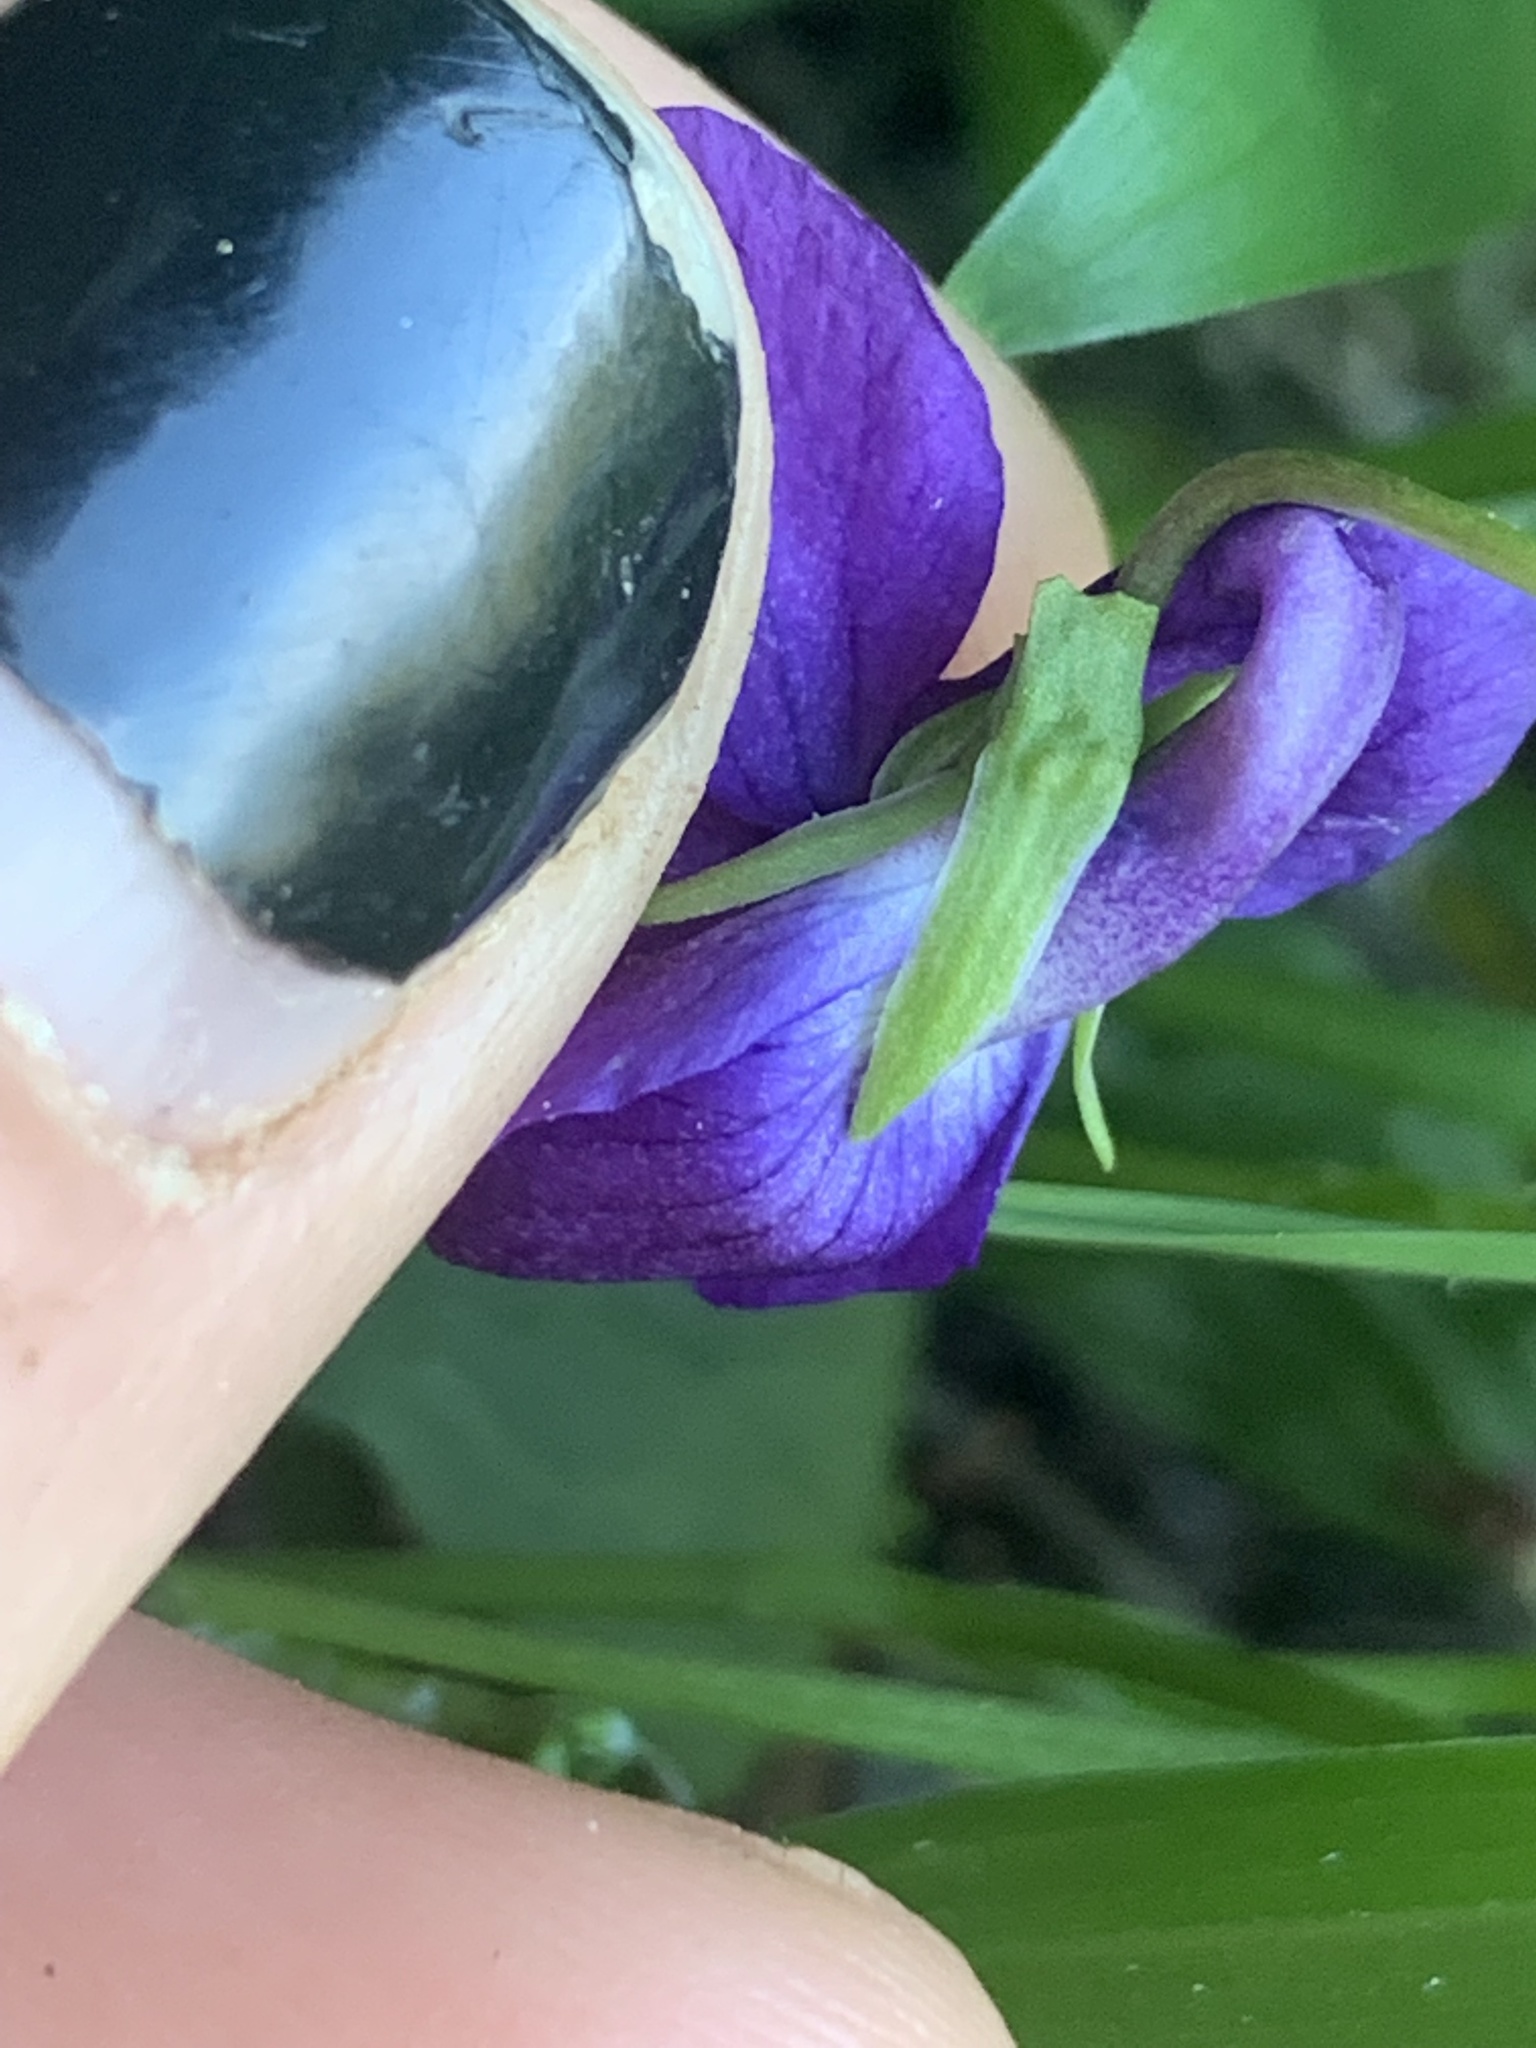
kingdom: Plantae
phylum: Tracheophyta
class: Magnoliopsida
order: Malpighiales
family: Violaceae
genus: Viola
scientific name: Viola adunca
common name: Sand violet
